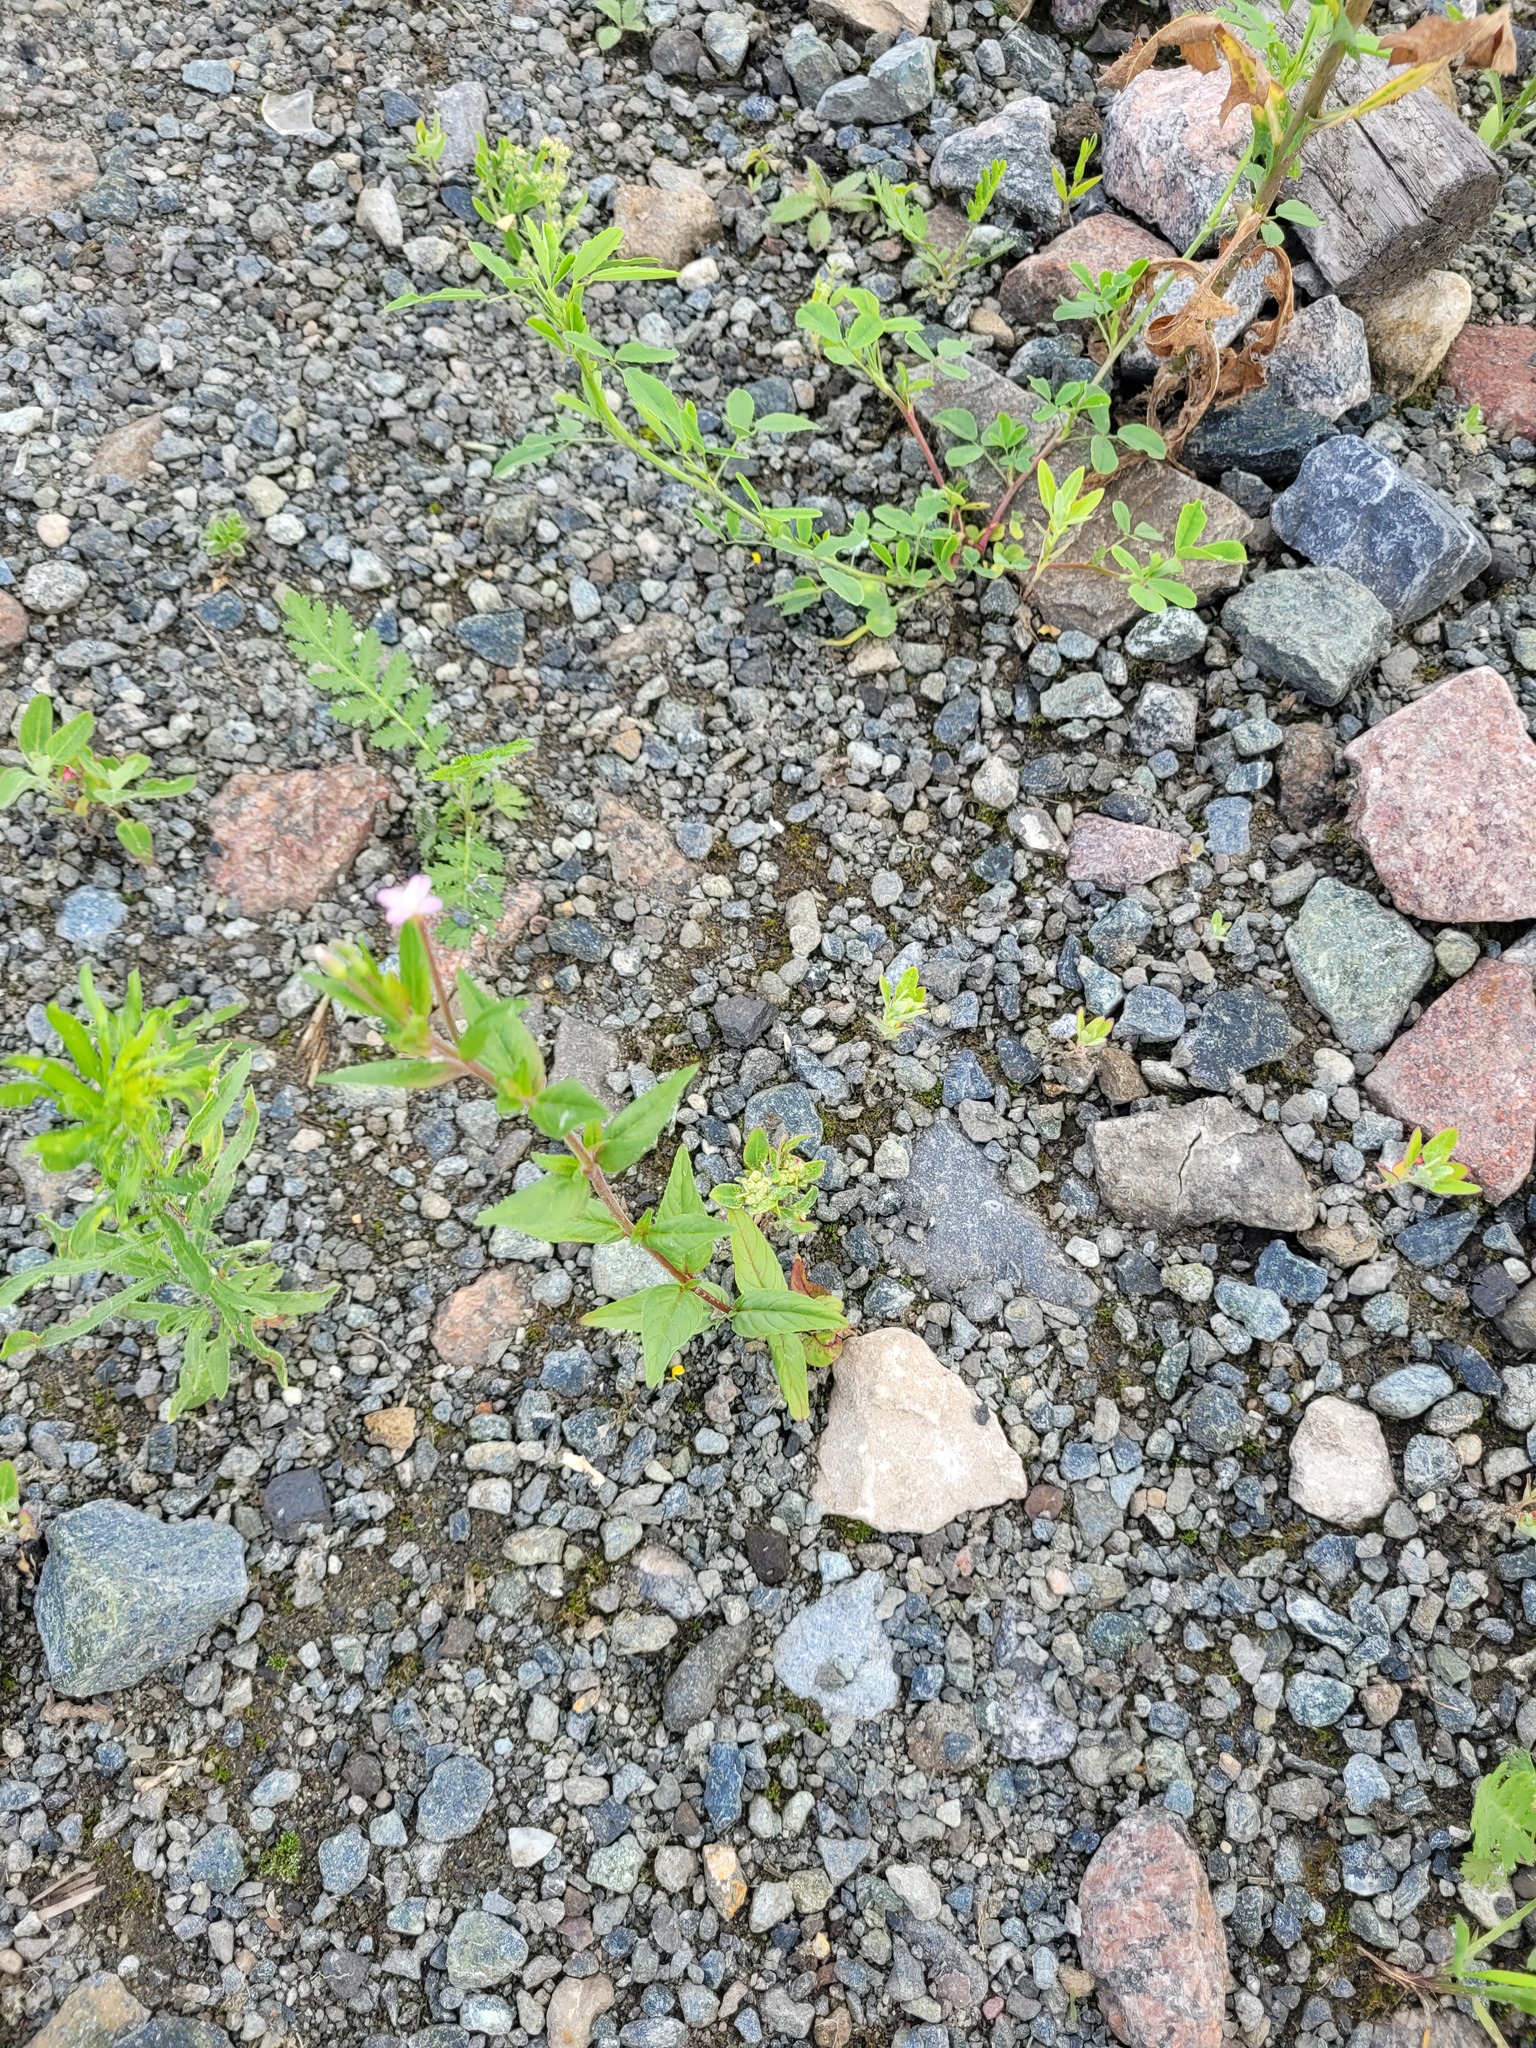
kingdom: Plantae
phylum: Tracheophyta
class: Magnoliopsida
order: Myrtales
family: Onagraceae
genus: Epilobium
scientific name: Epilobium ciliatum
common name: American willowherb
